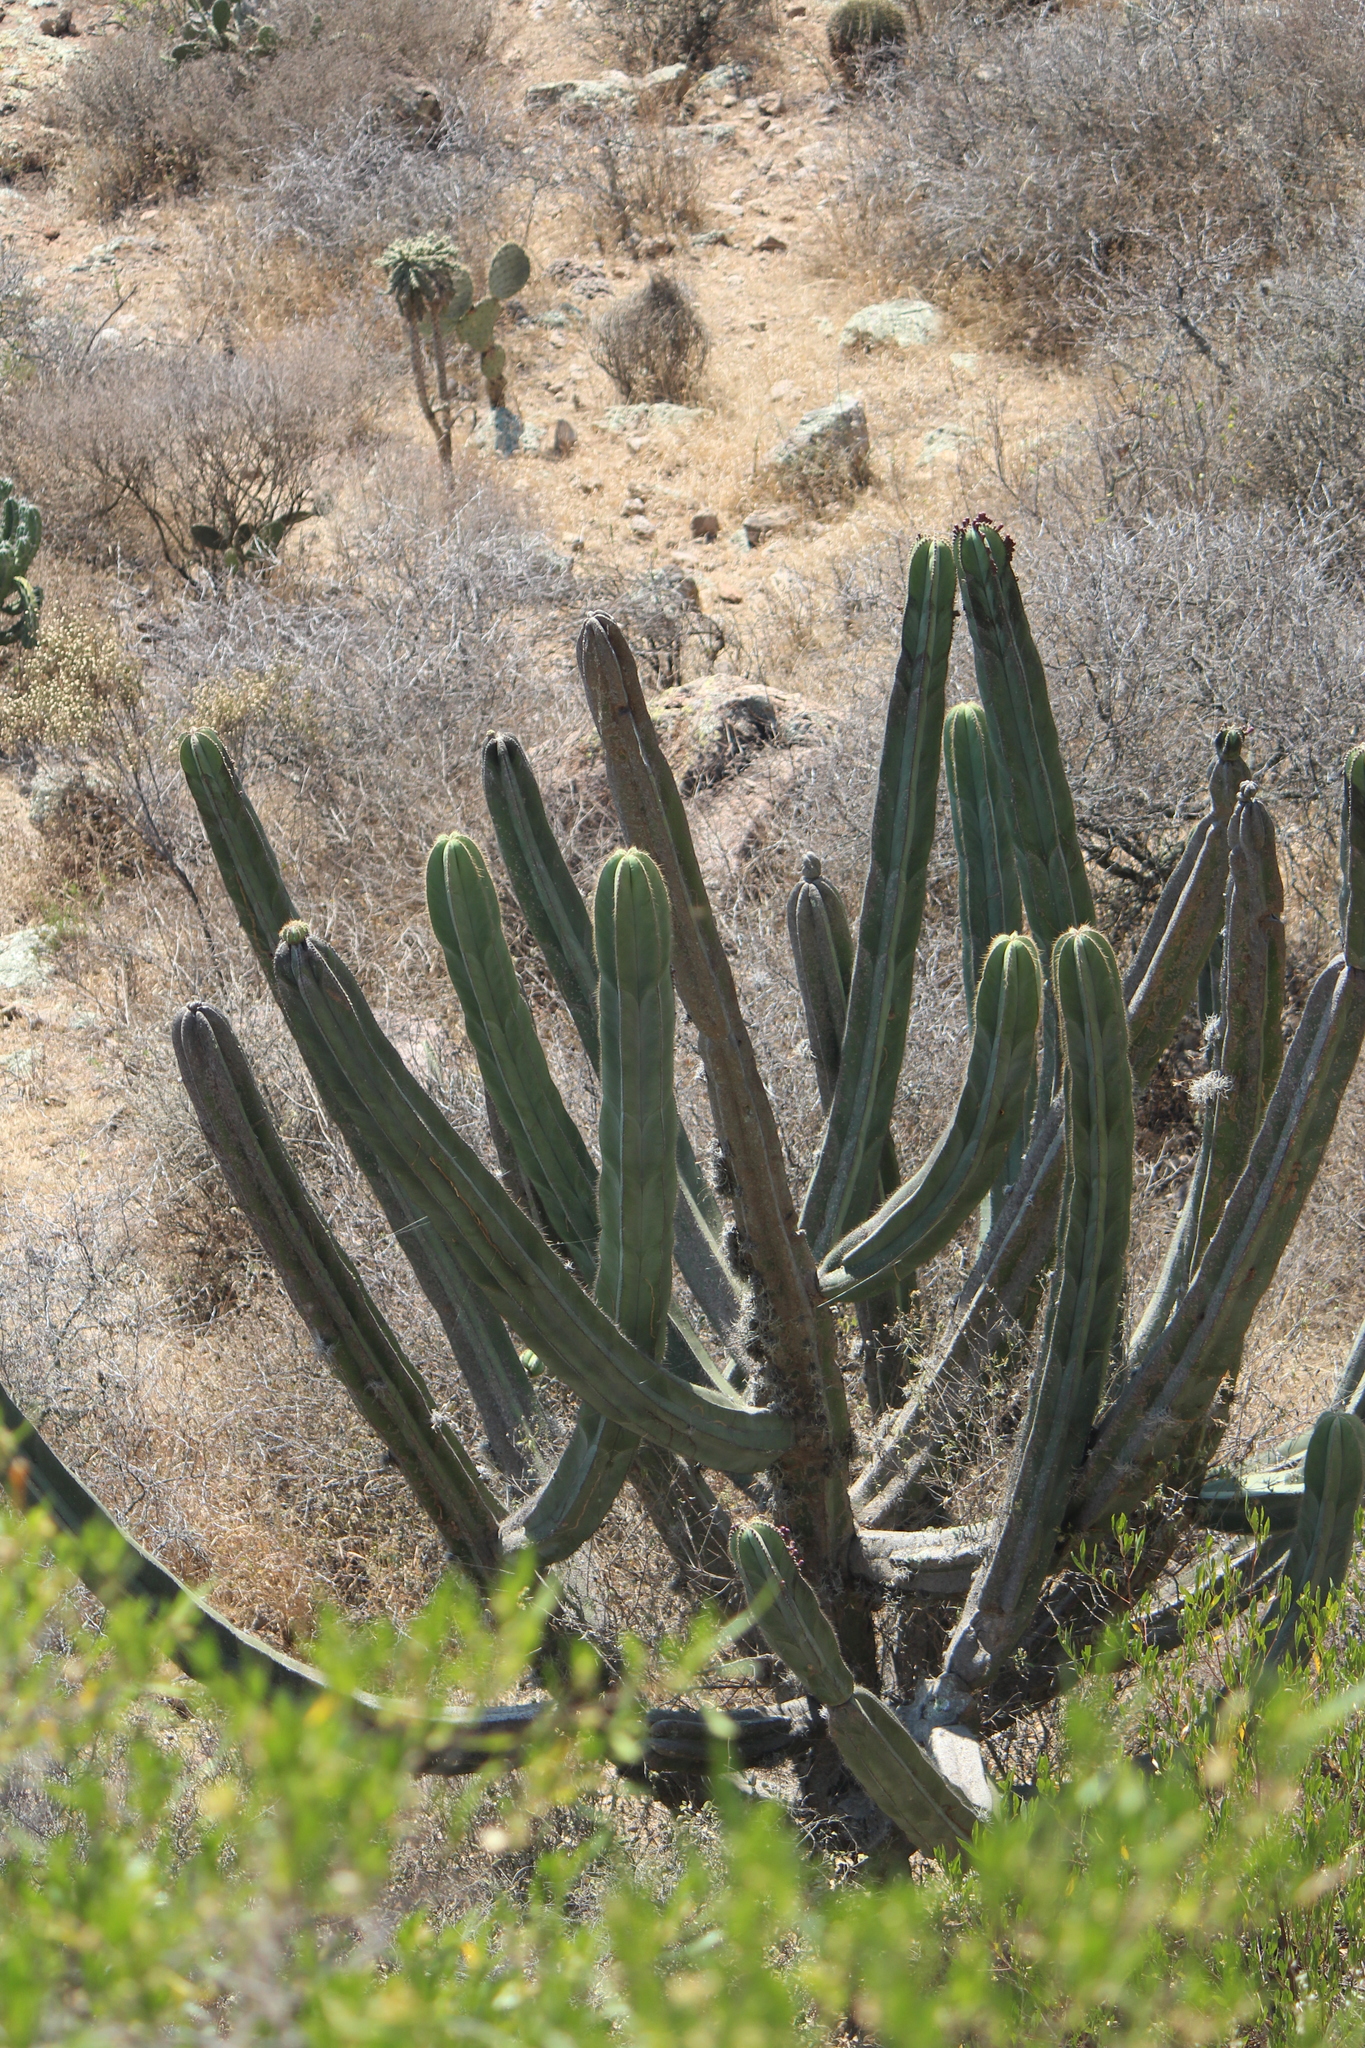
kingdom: Plantae
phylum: Tracheophyta
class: Magnoliopsida
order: Caryophyllales
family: Cactaceae
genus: Stenocereus
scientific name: Stenocereus dumortieri
